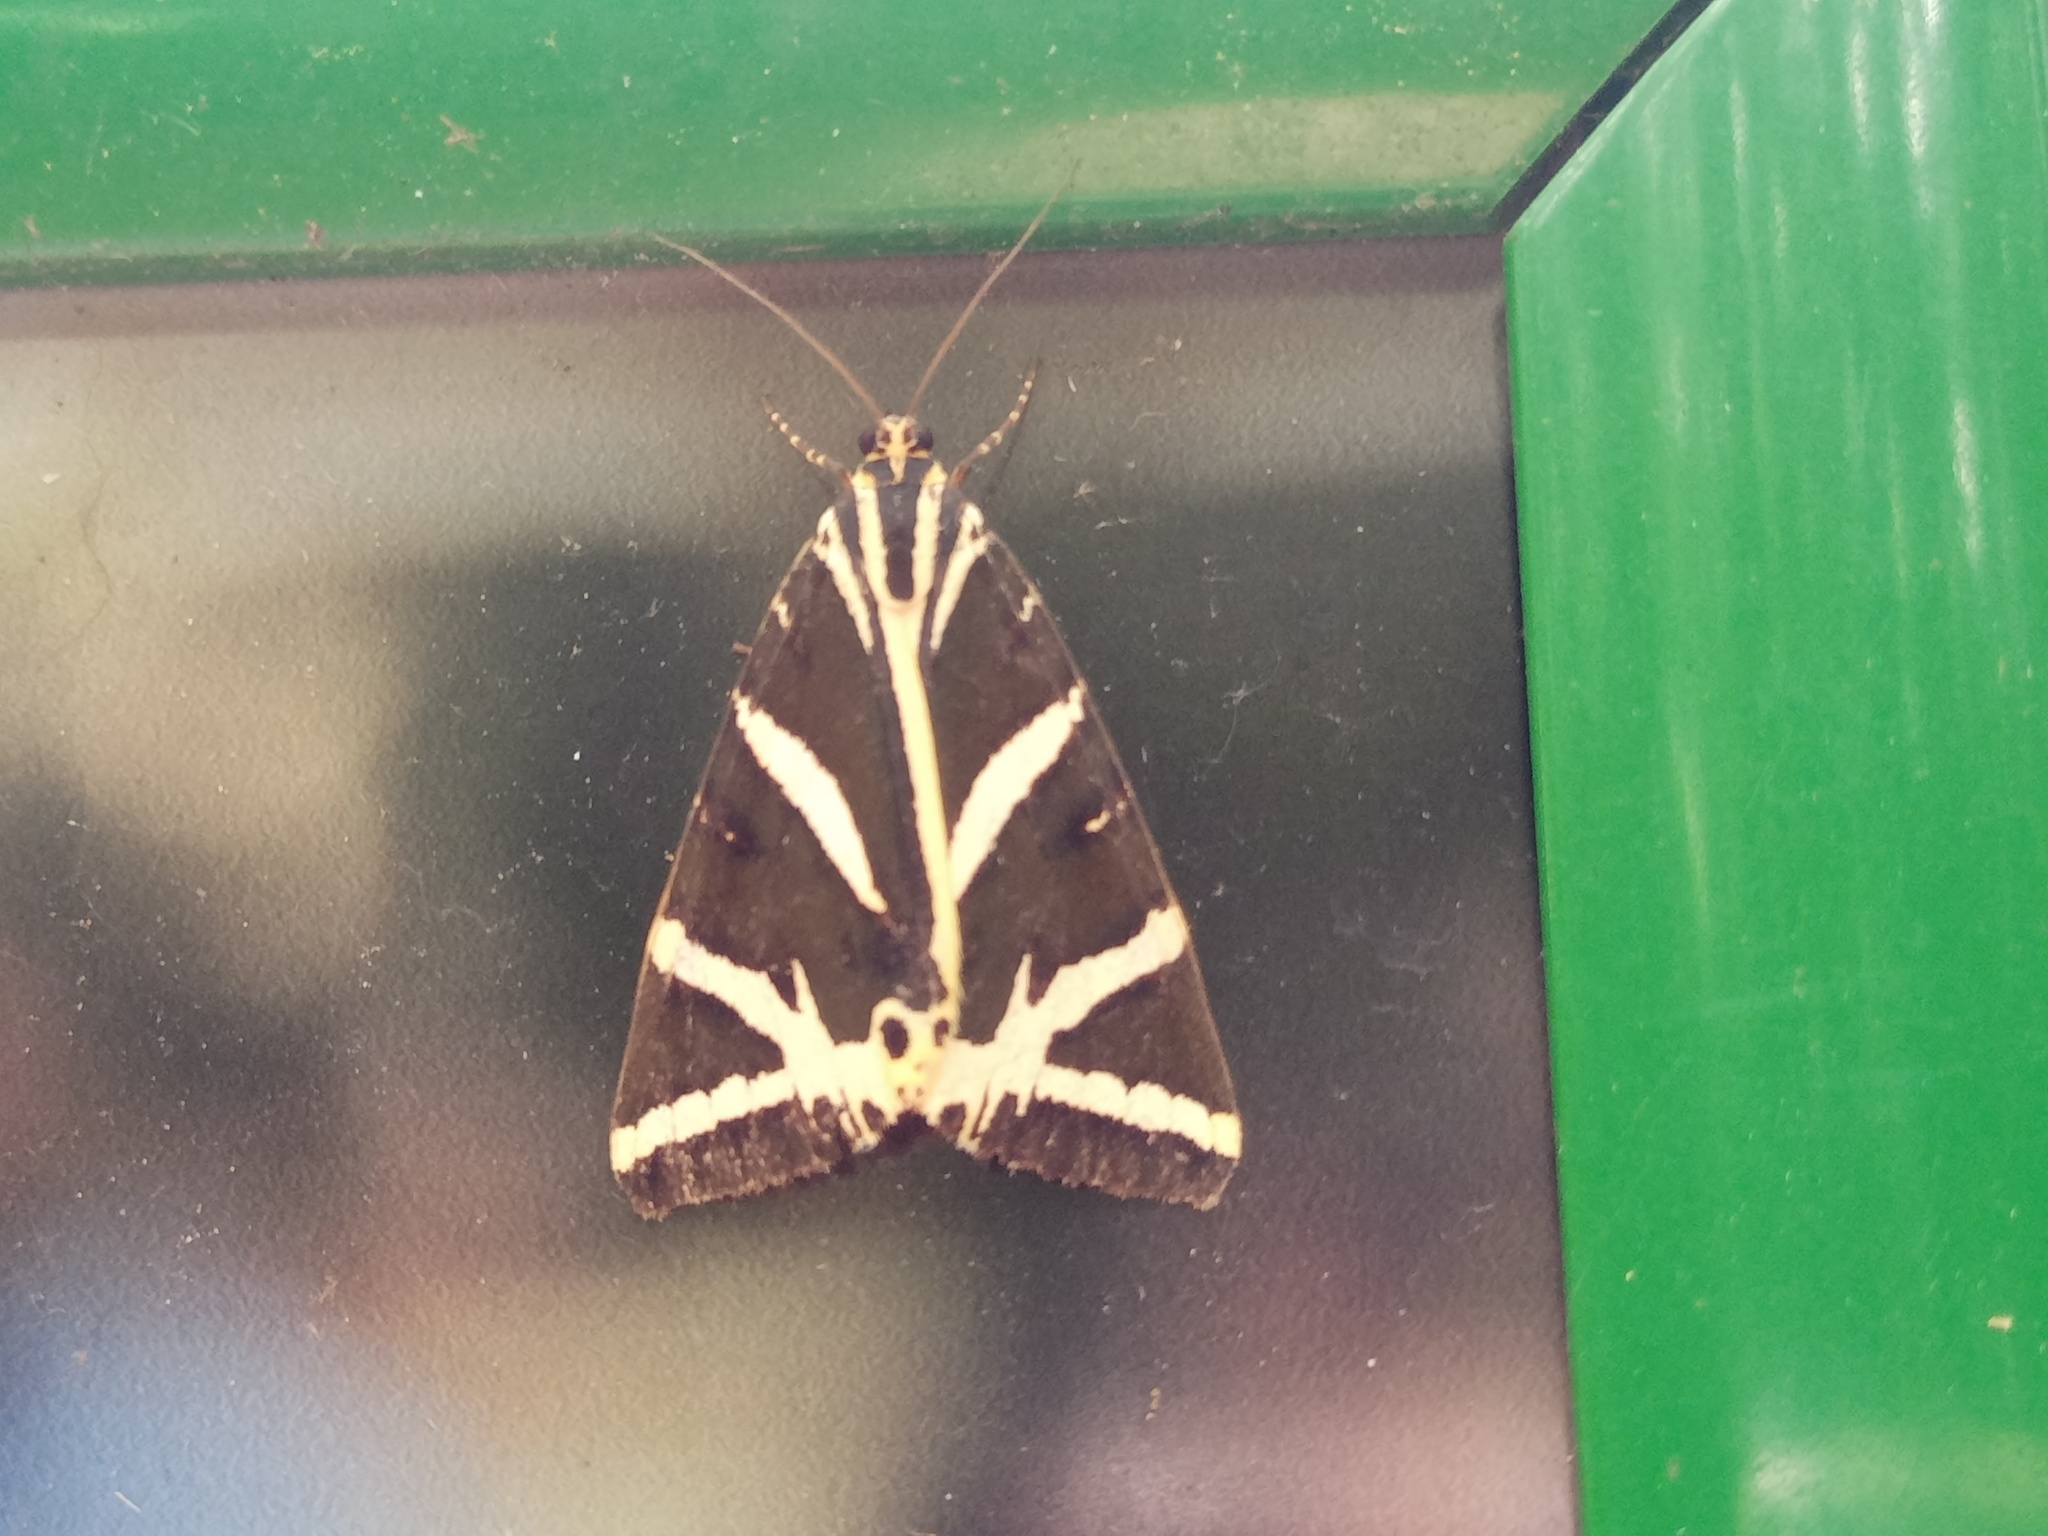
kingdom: Animalia
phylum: Arthropoda
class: Insecta
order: Lepidoptera
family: Erebidae
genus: Euplagia
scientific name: Euplagia quadripunctaria
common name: Jersey tiger
